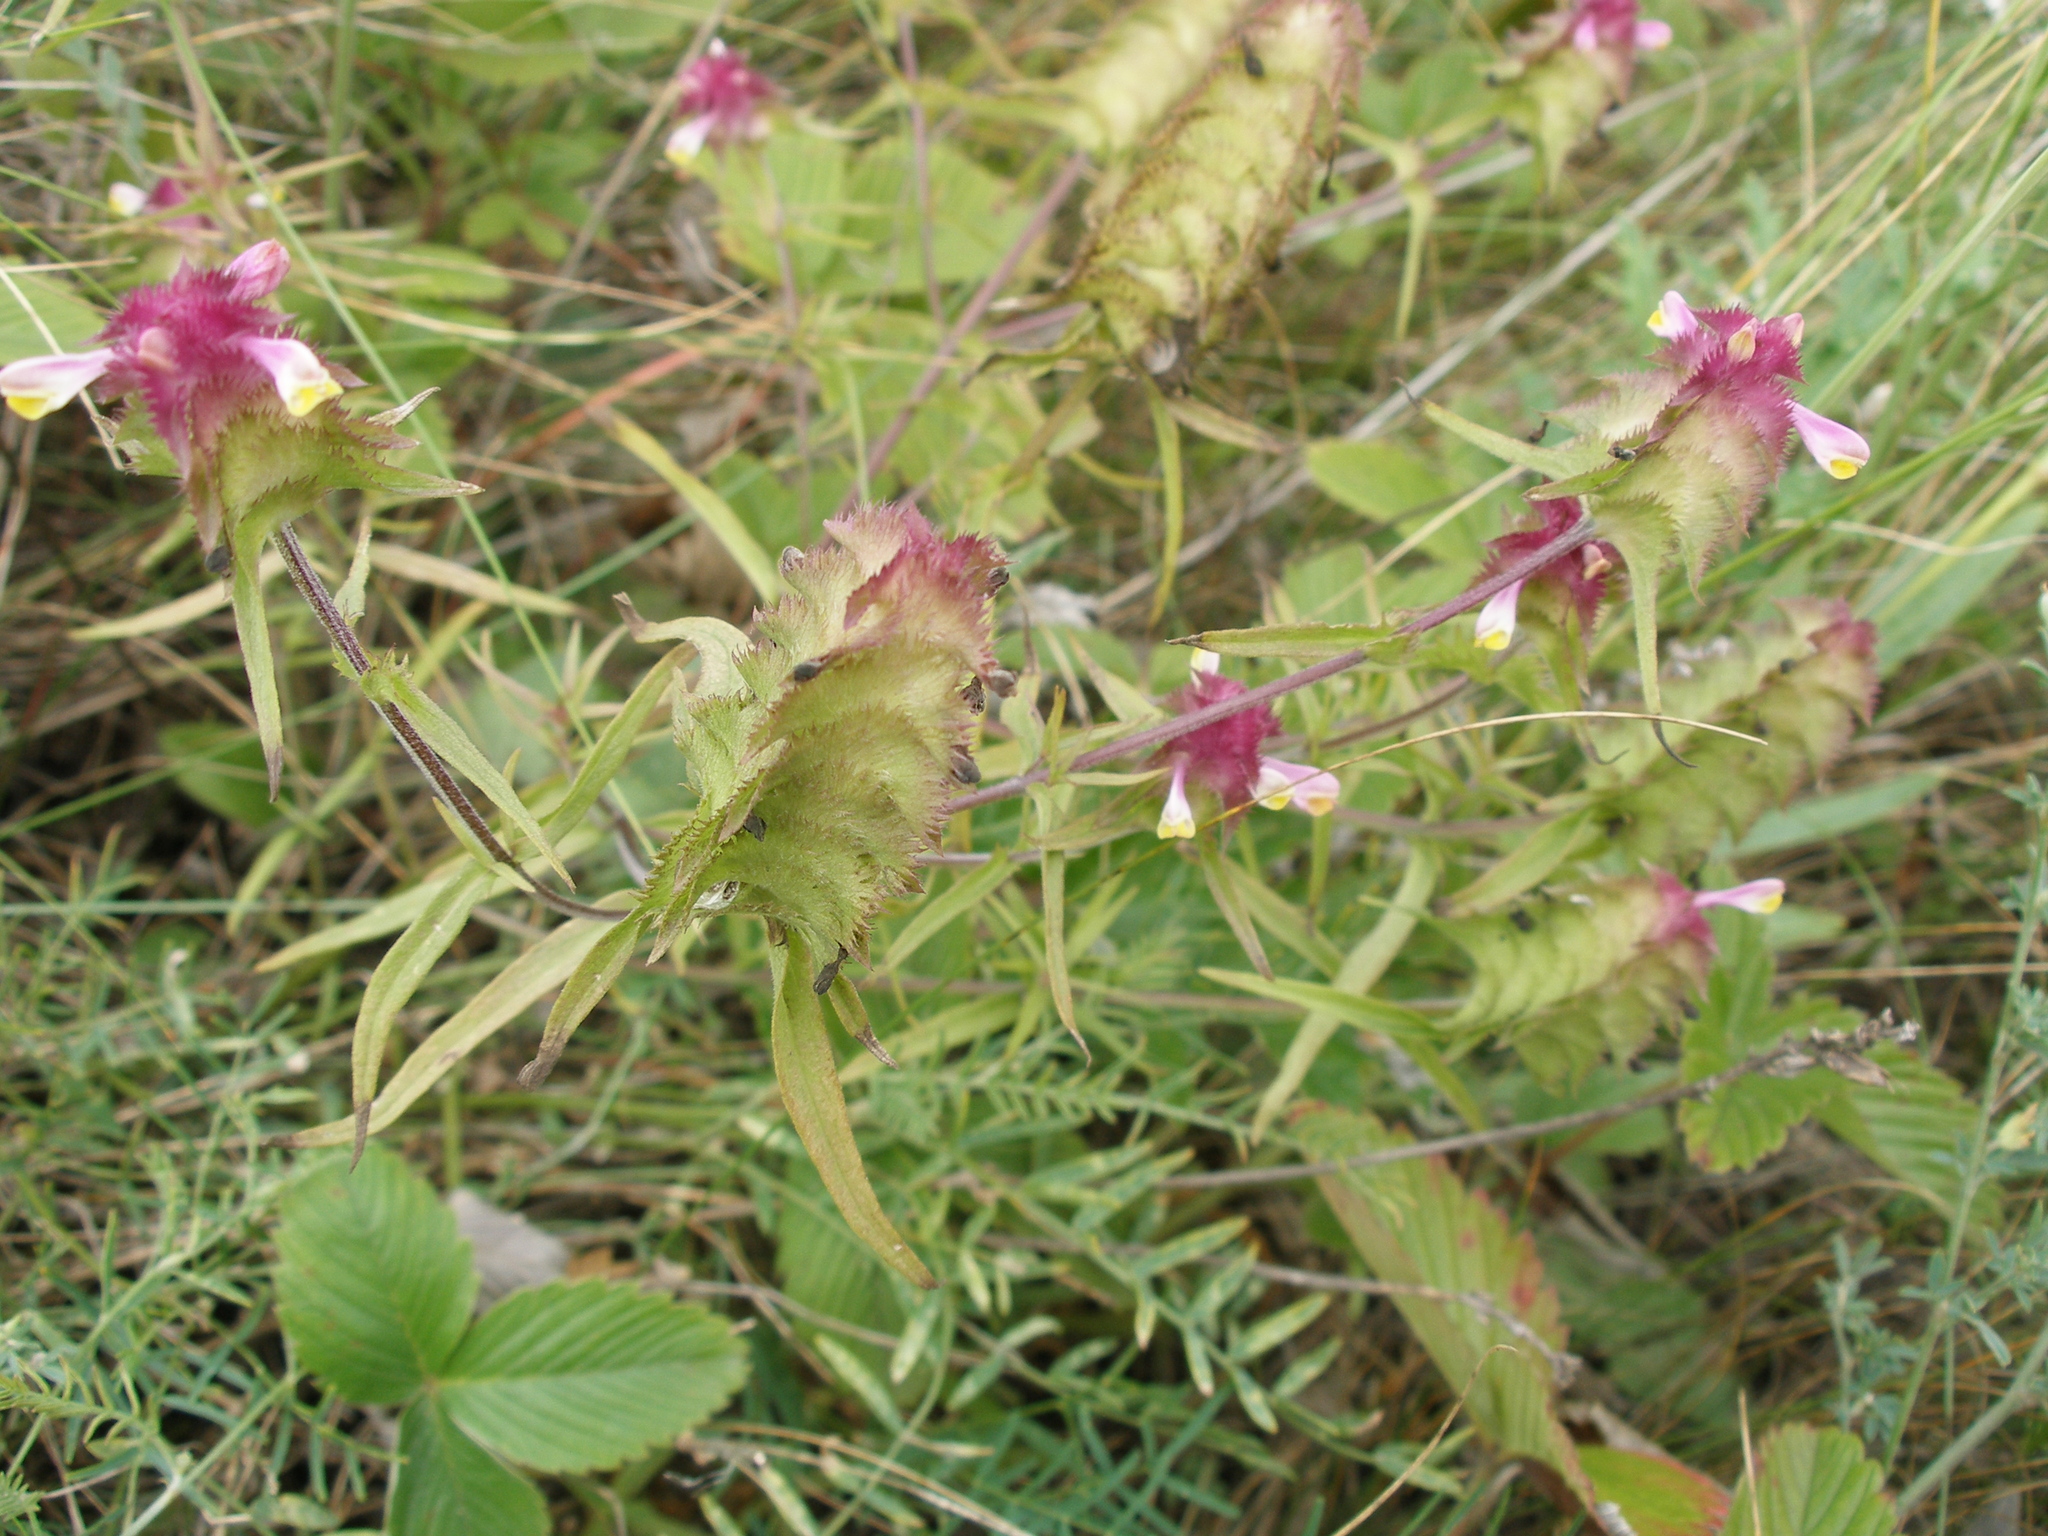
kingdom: Plantae
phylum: Tracheophyta
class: Magnoliopsida
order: Lamiales
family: Orobanchaceae
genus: Melampyrum
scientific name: Melampyrum cristatum
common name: Crested cow-wheat
